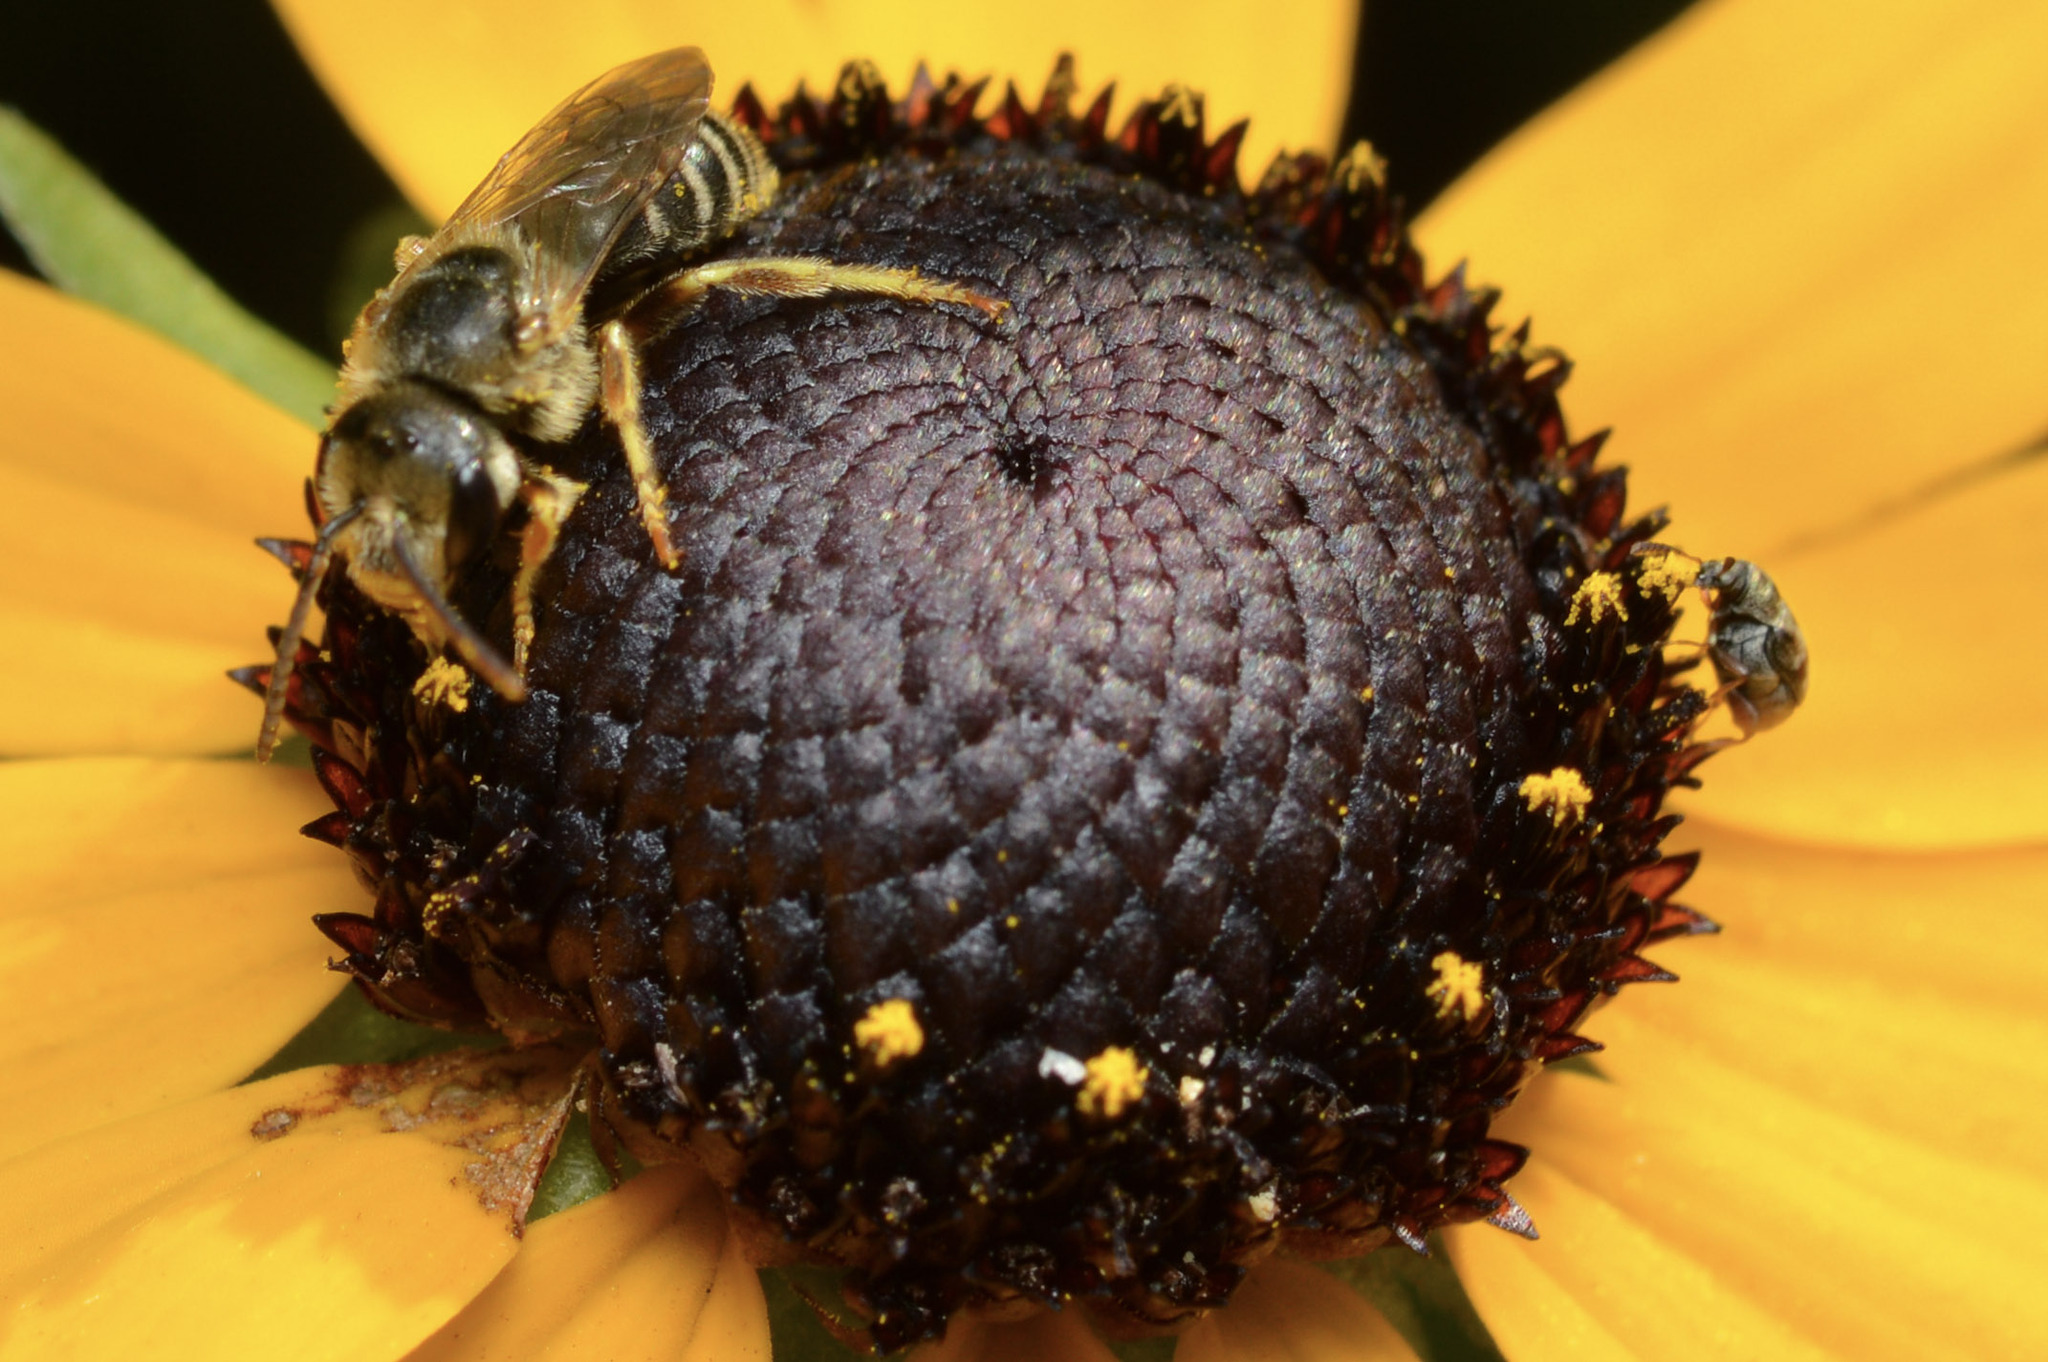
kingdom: Animalia
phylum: Arthropoda
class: Insecta
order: Hymenoptera
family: Halictidae
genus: Halictus
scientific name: Halictus ligatus
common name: Ligated furrow bee
